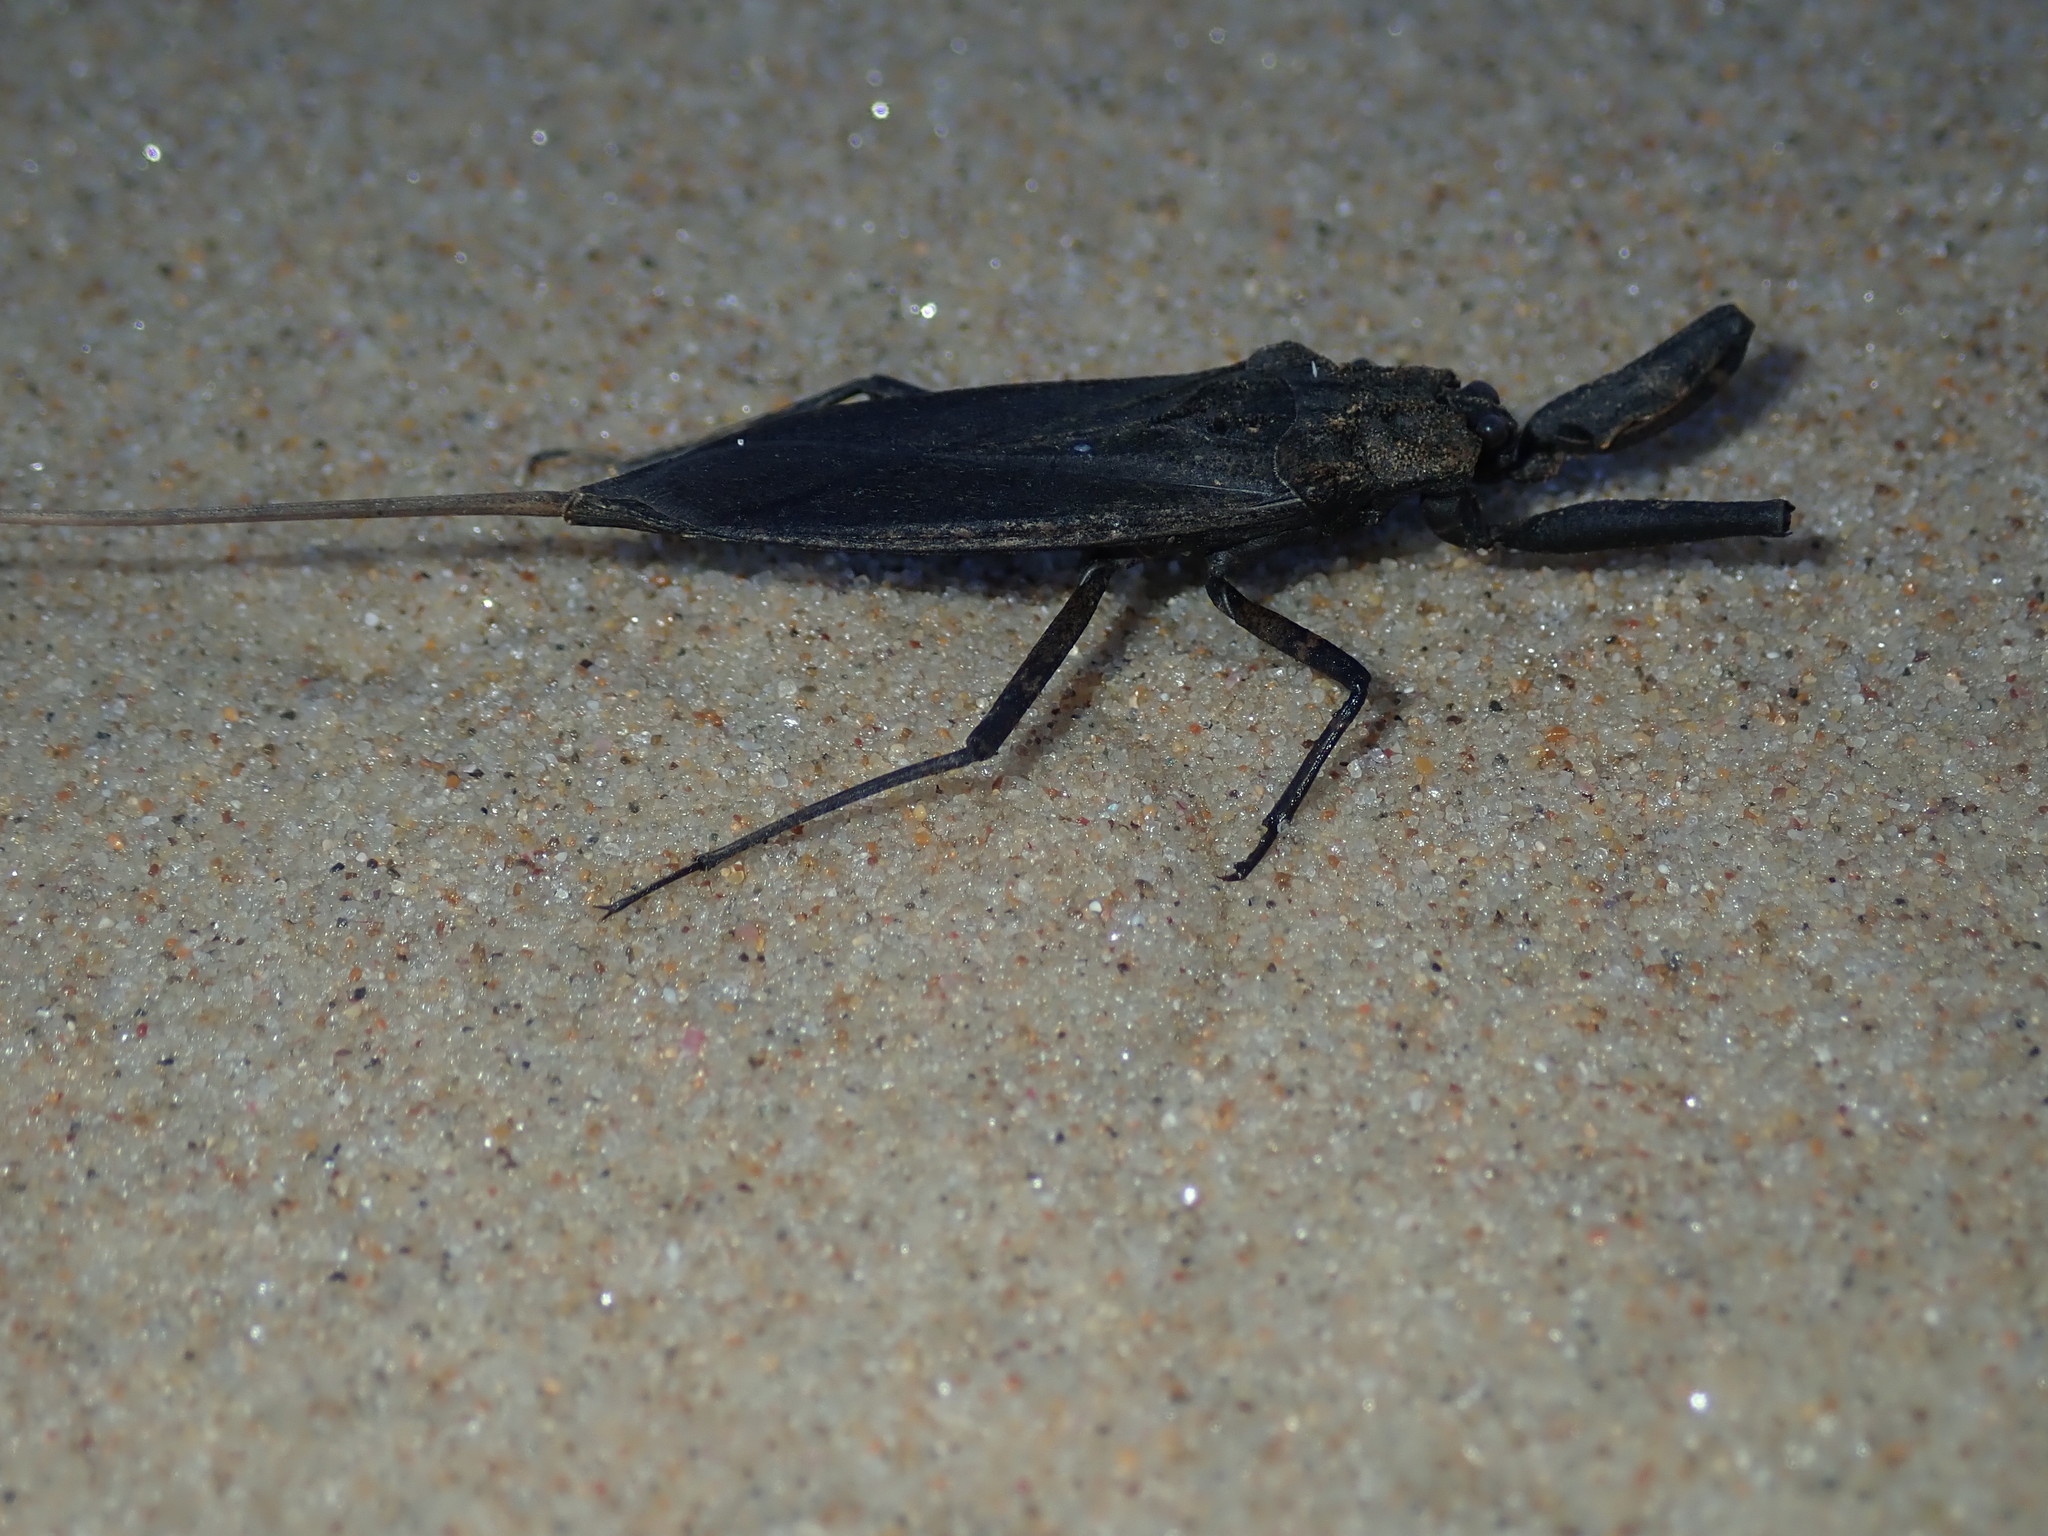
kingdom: Animalia
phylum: Arthropoda
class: Insecta
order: Hemiptera
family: Nepidae
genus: Laccotrephes
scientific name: Laccotrephes tristis
